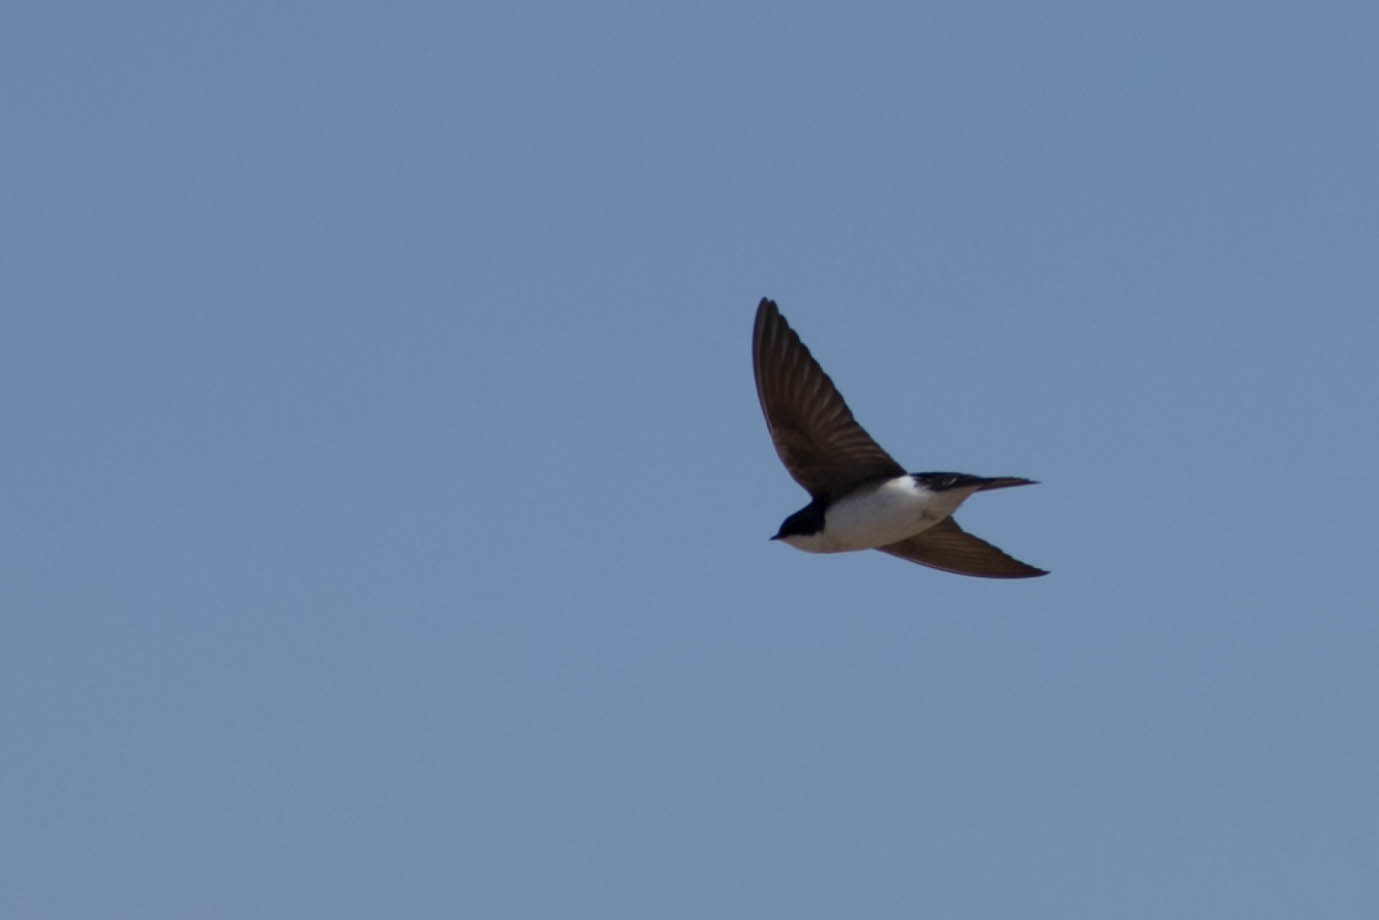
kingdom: Animalia
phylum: Chordata
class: Aves
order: Passeriformes
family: Hirundinidae
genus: Tachycineta
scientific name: Tachycineta bicolor
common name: Tree swallow
